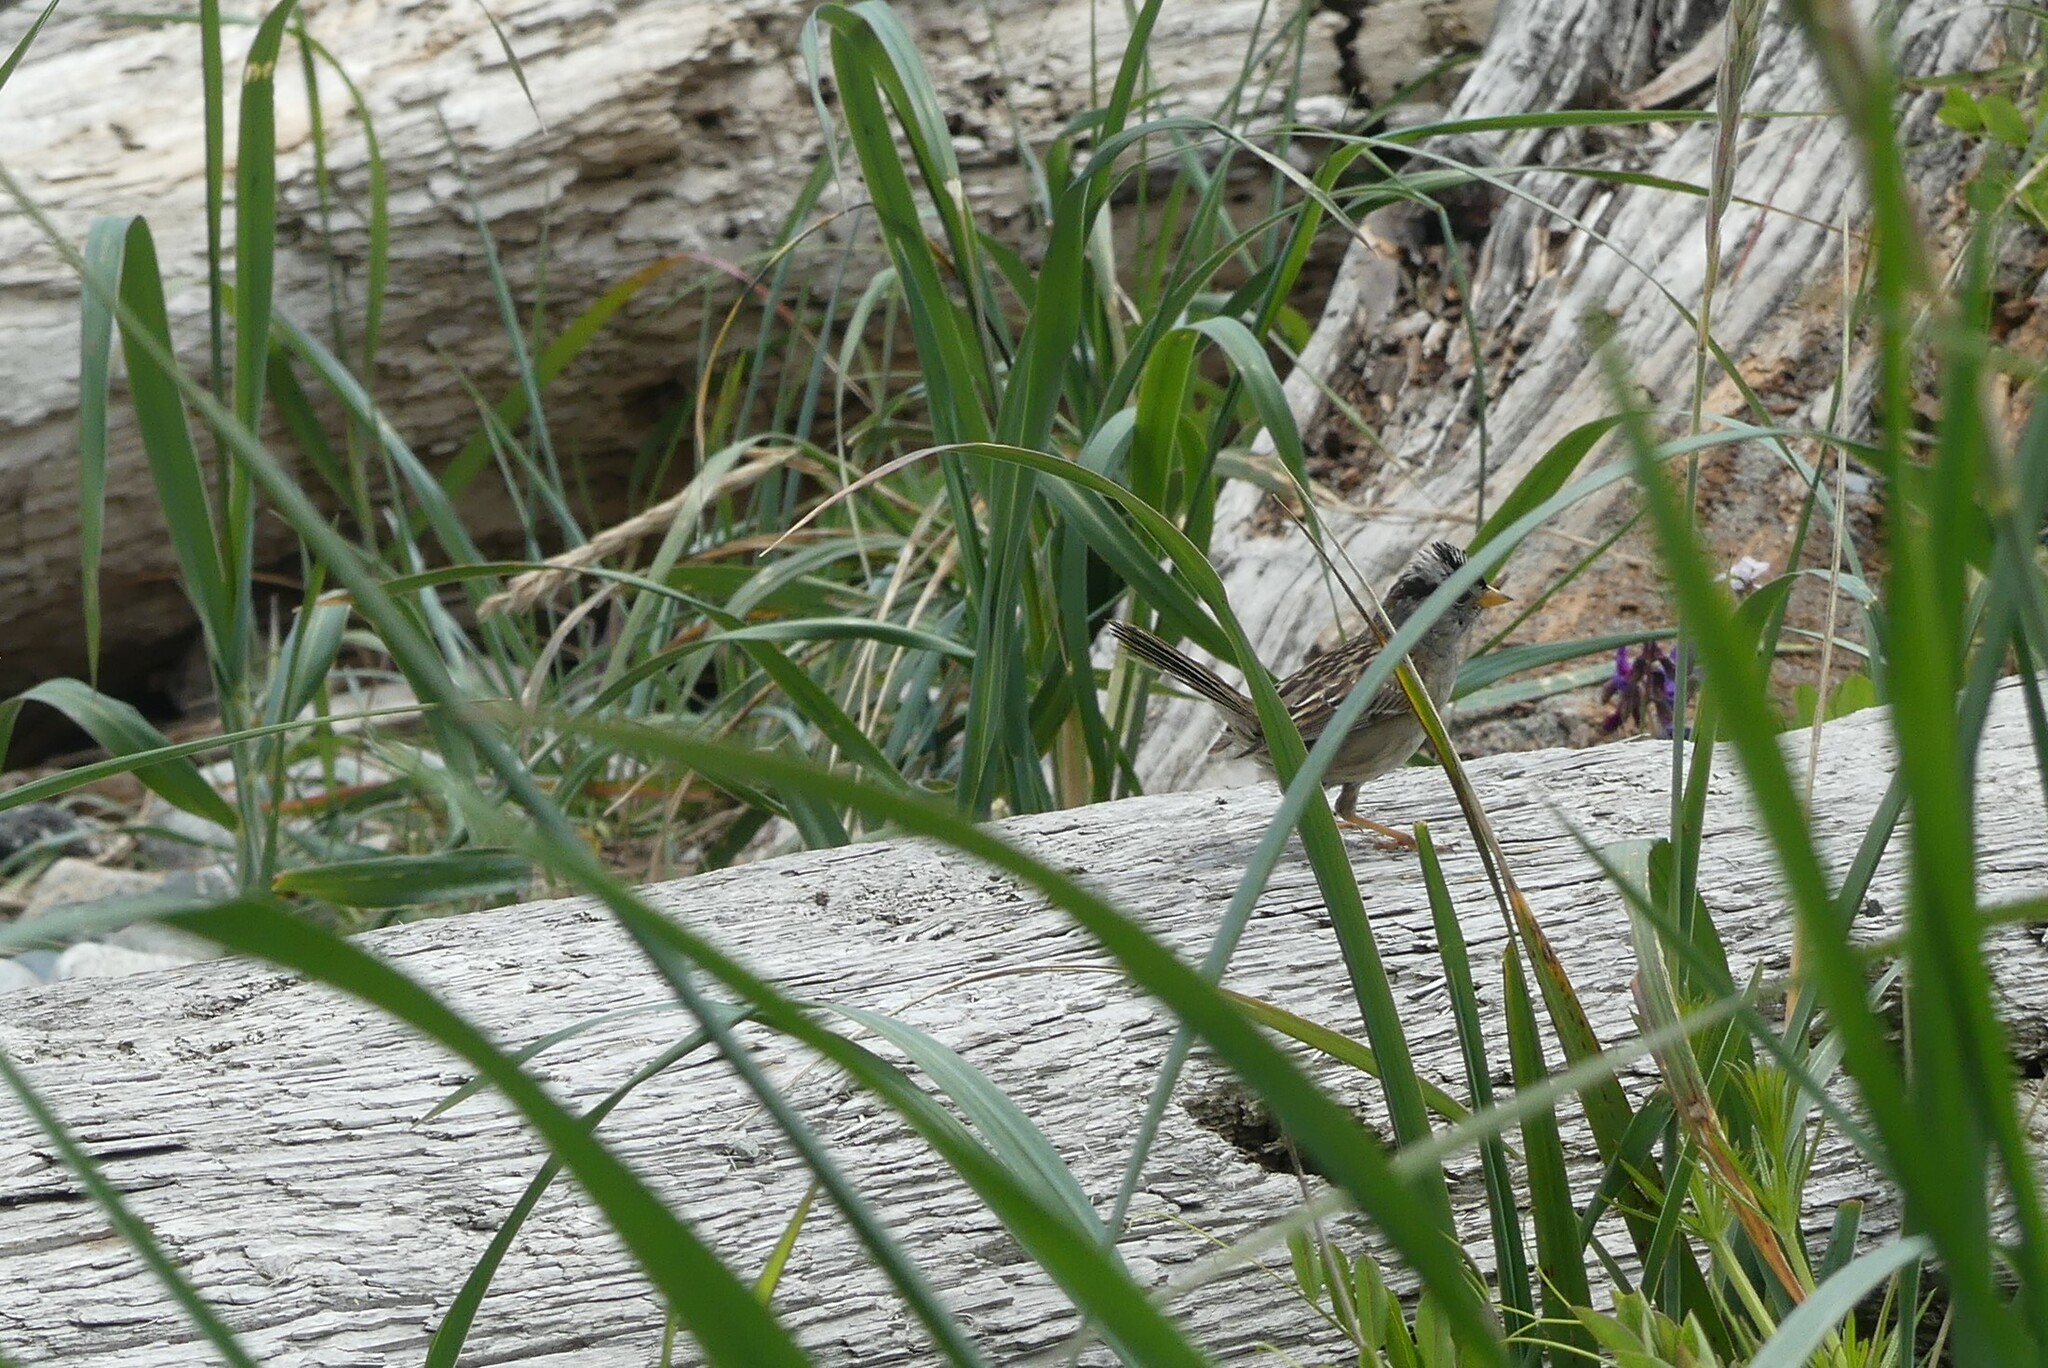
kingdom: Animalia
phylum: Chordata
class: Aves
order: Passeriformes
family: Passerellidae
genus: Zonotrichia
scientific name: Zonotrichia leucophrys
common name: White-crowned sparrow
